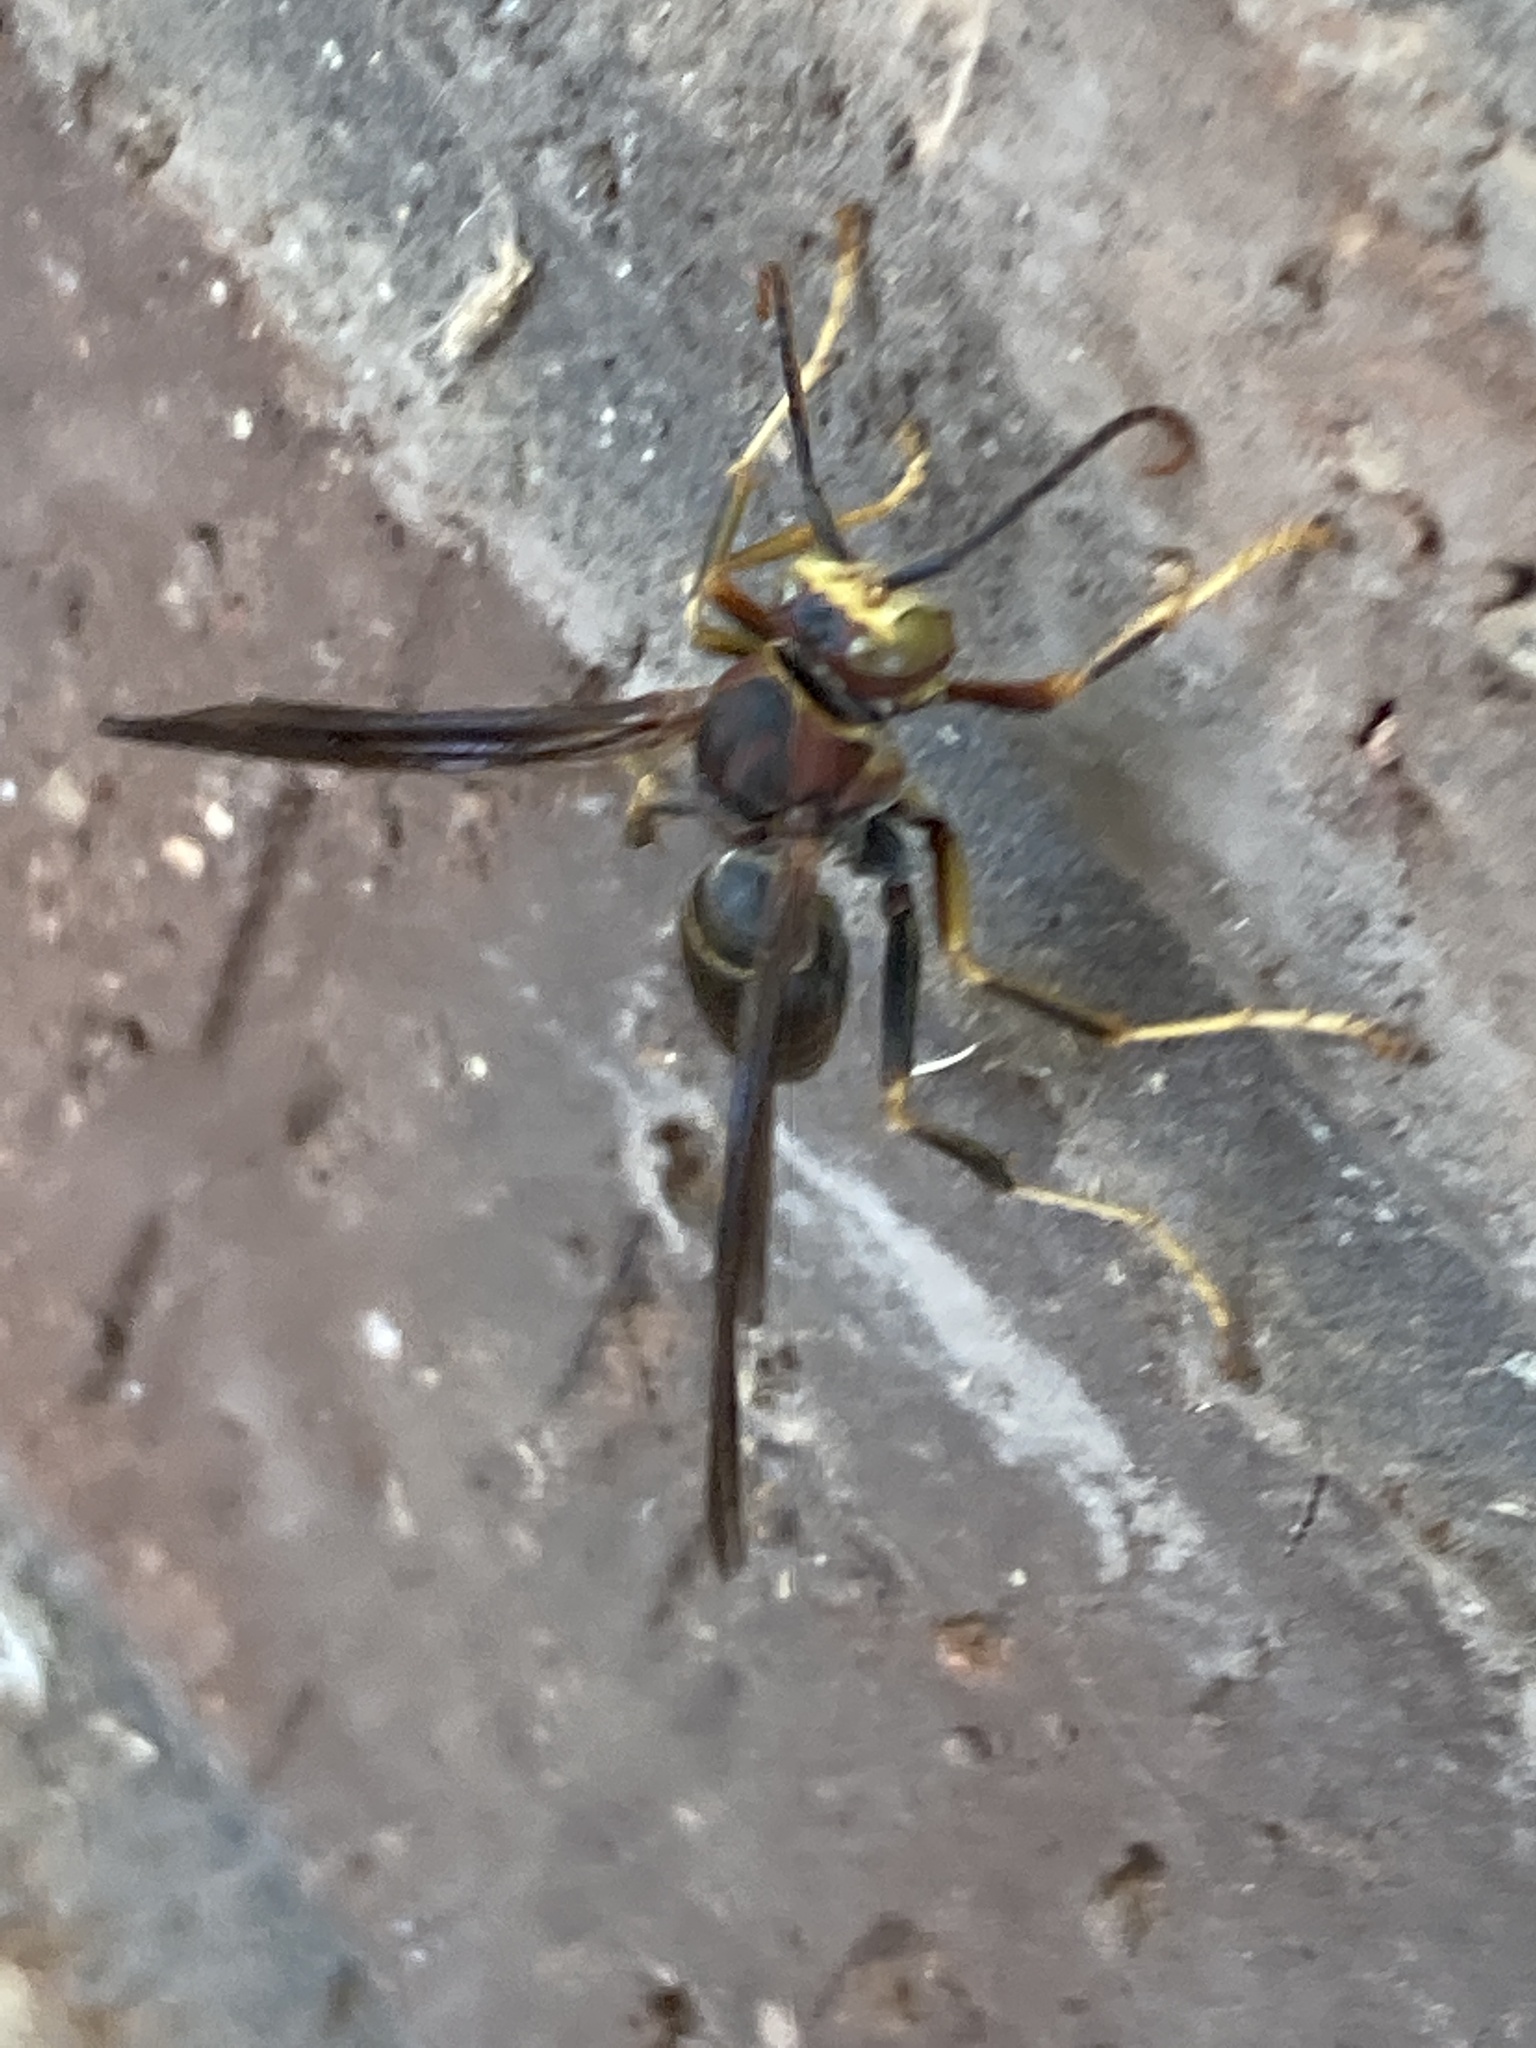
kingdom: Animalia
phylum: Arthropoda
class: Insecta
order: Hymenoptera
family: Eumenidae
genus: Polistes
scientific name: Polistes metricus
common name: Metric paper wasp
